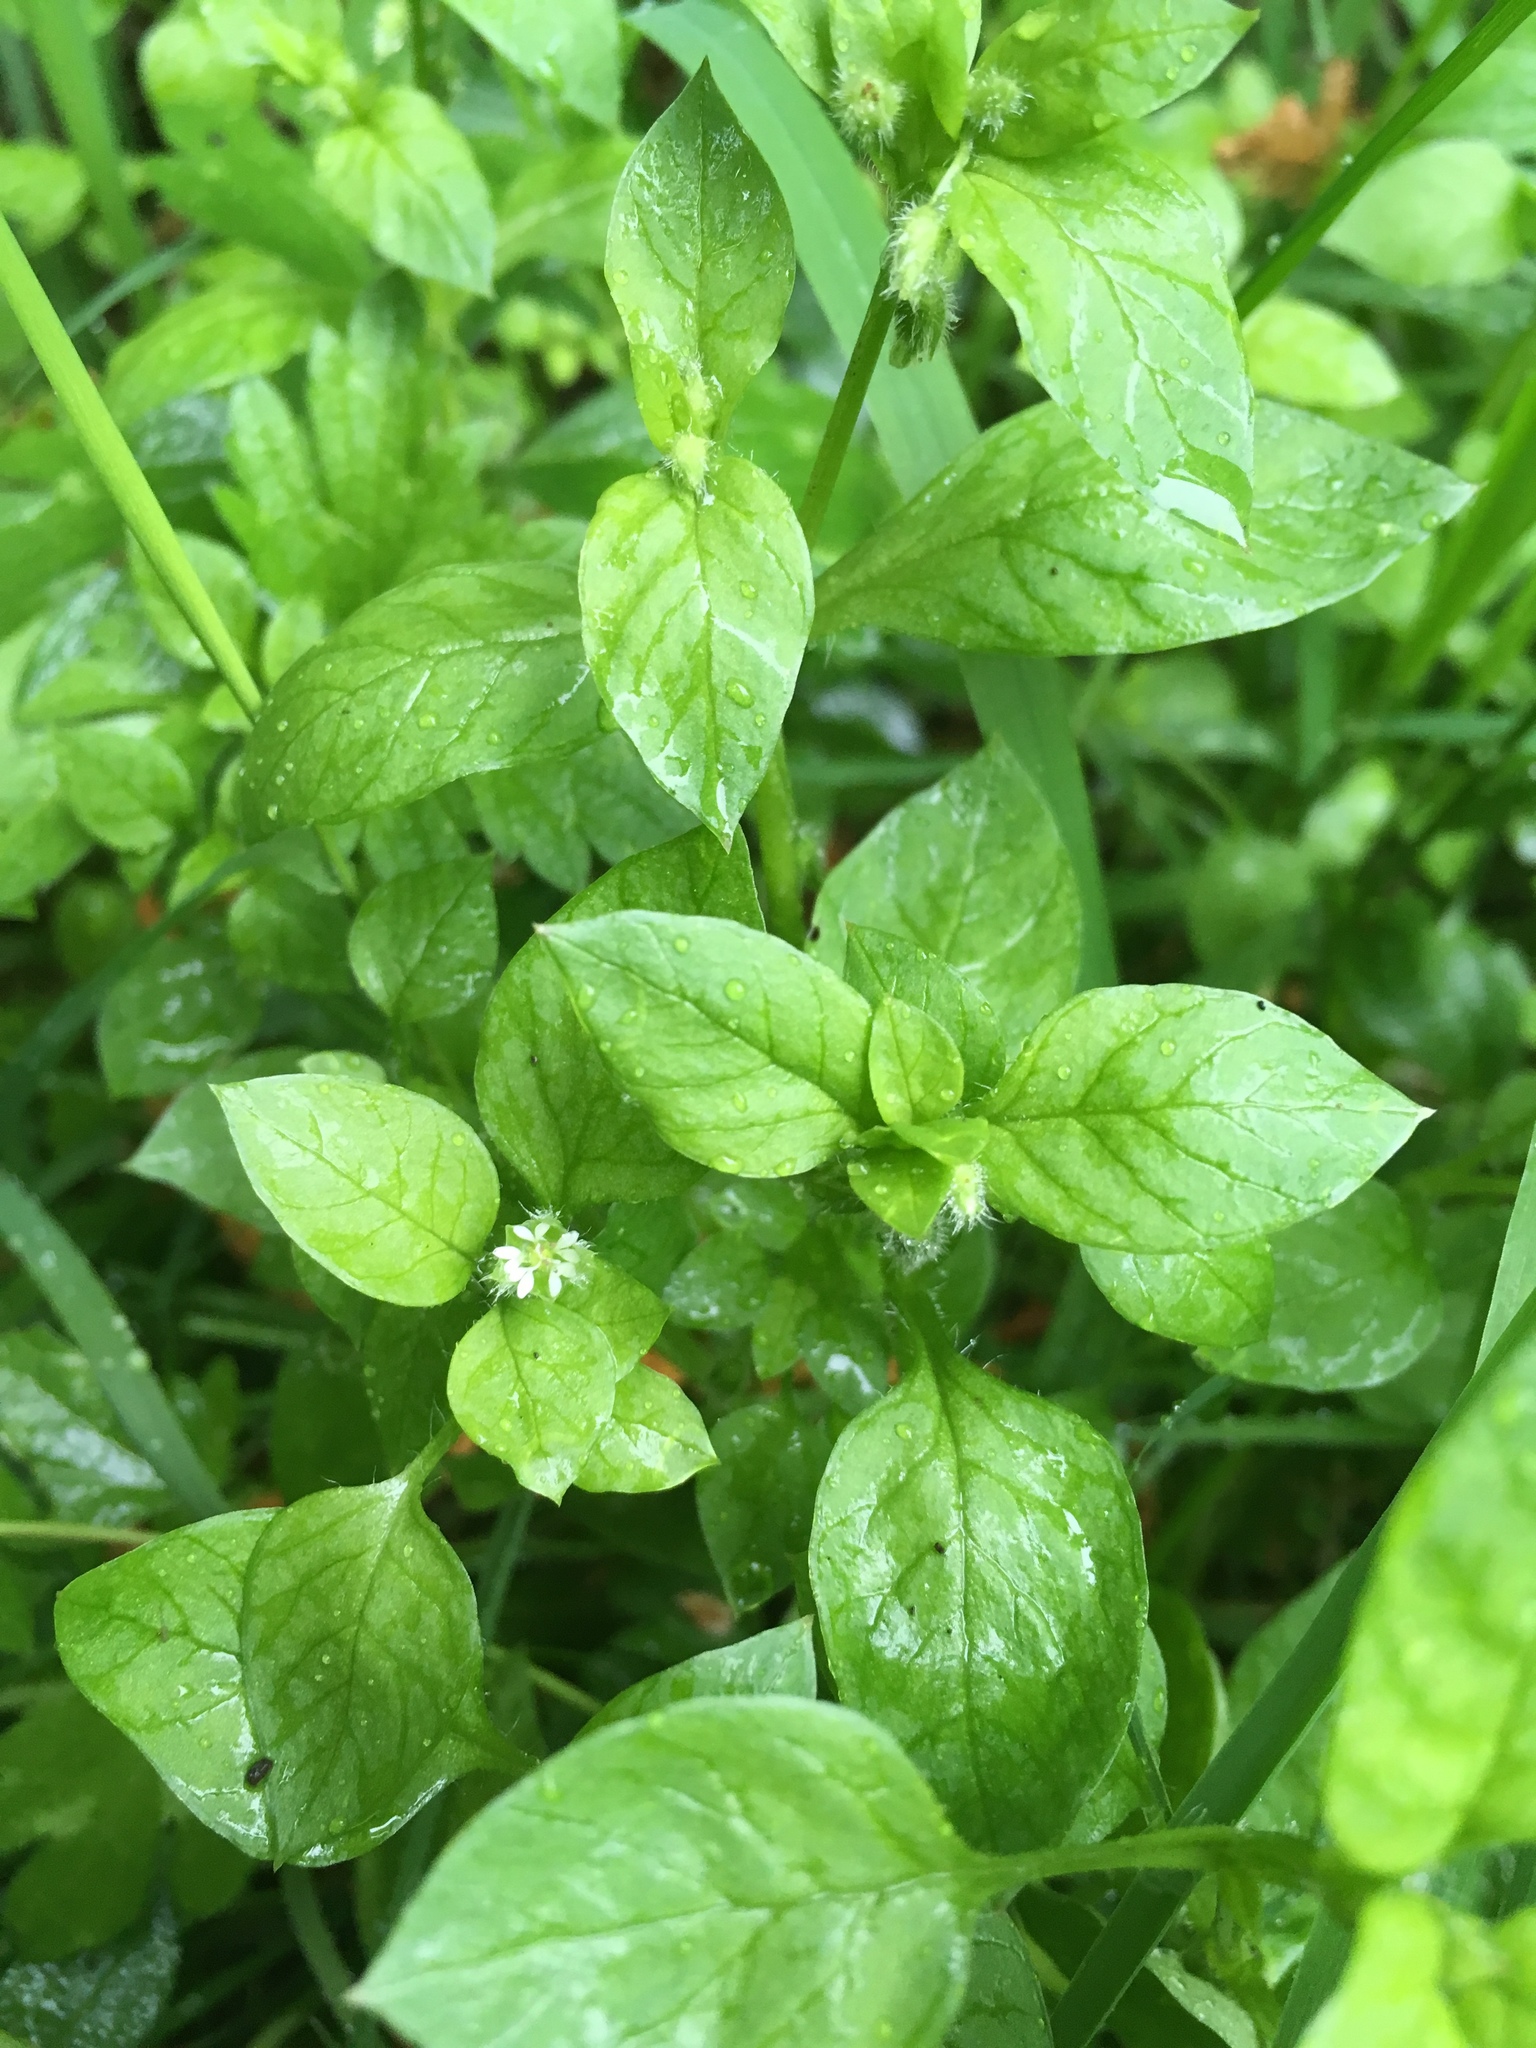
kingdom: Plantae
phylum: Tracheophyta
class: Magnoliopsida
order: Caryophyllales
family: Caryophyllaceae
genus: Stellaria
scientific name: Stellaria media
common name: Common chickweed
